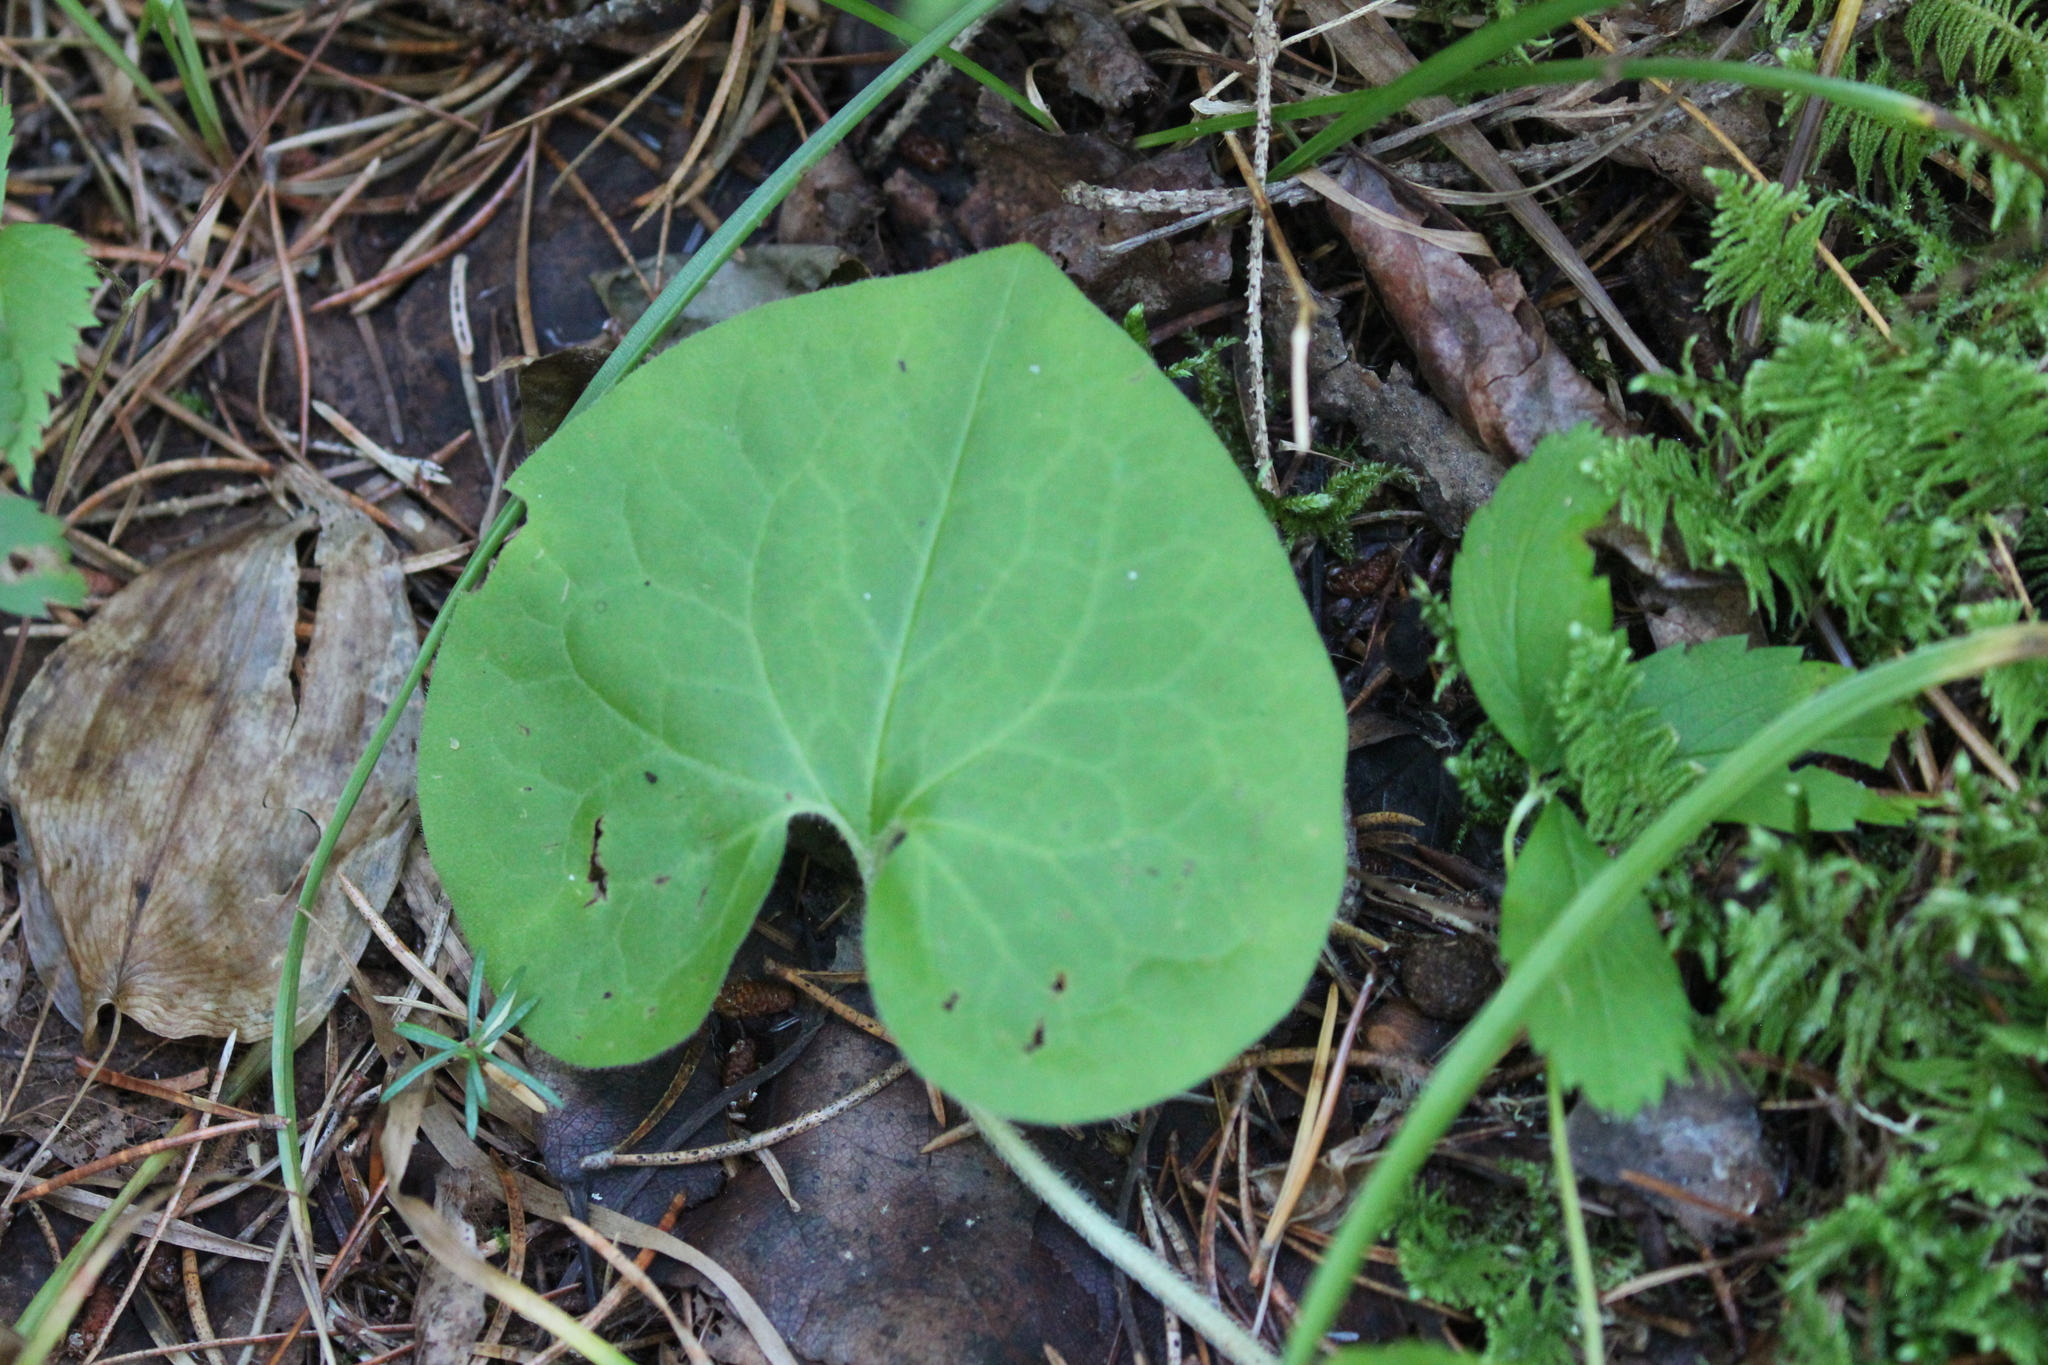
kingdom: Plantae
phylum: Tracheophyta
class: Magnoliopsida
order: Piperales
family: Aristolochiaceae
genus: Asarum
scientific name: Asarum canadense
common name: Wild ginger
